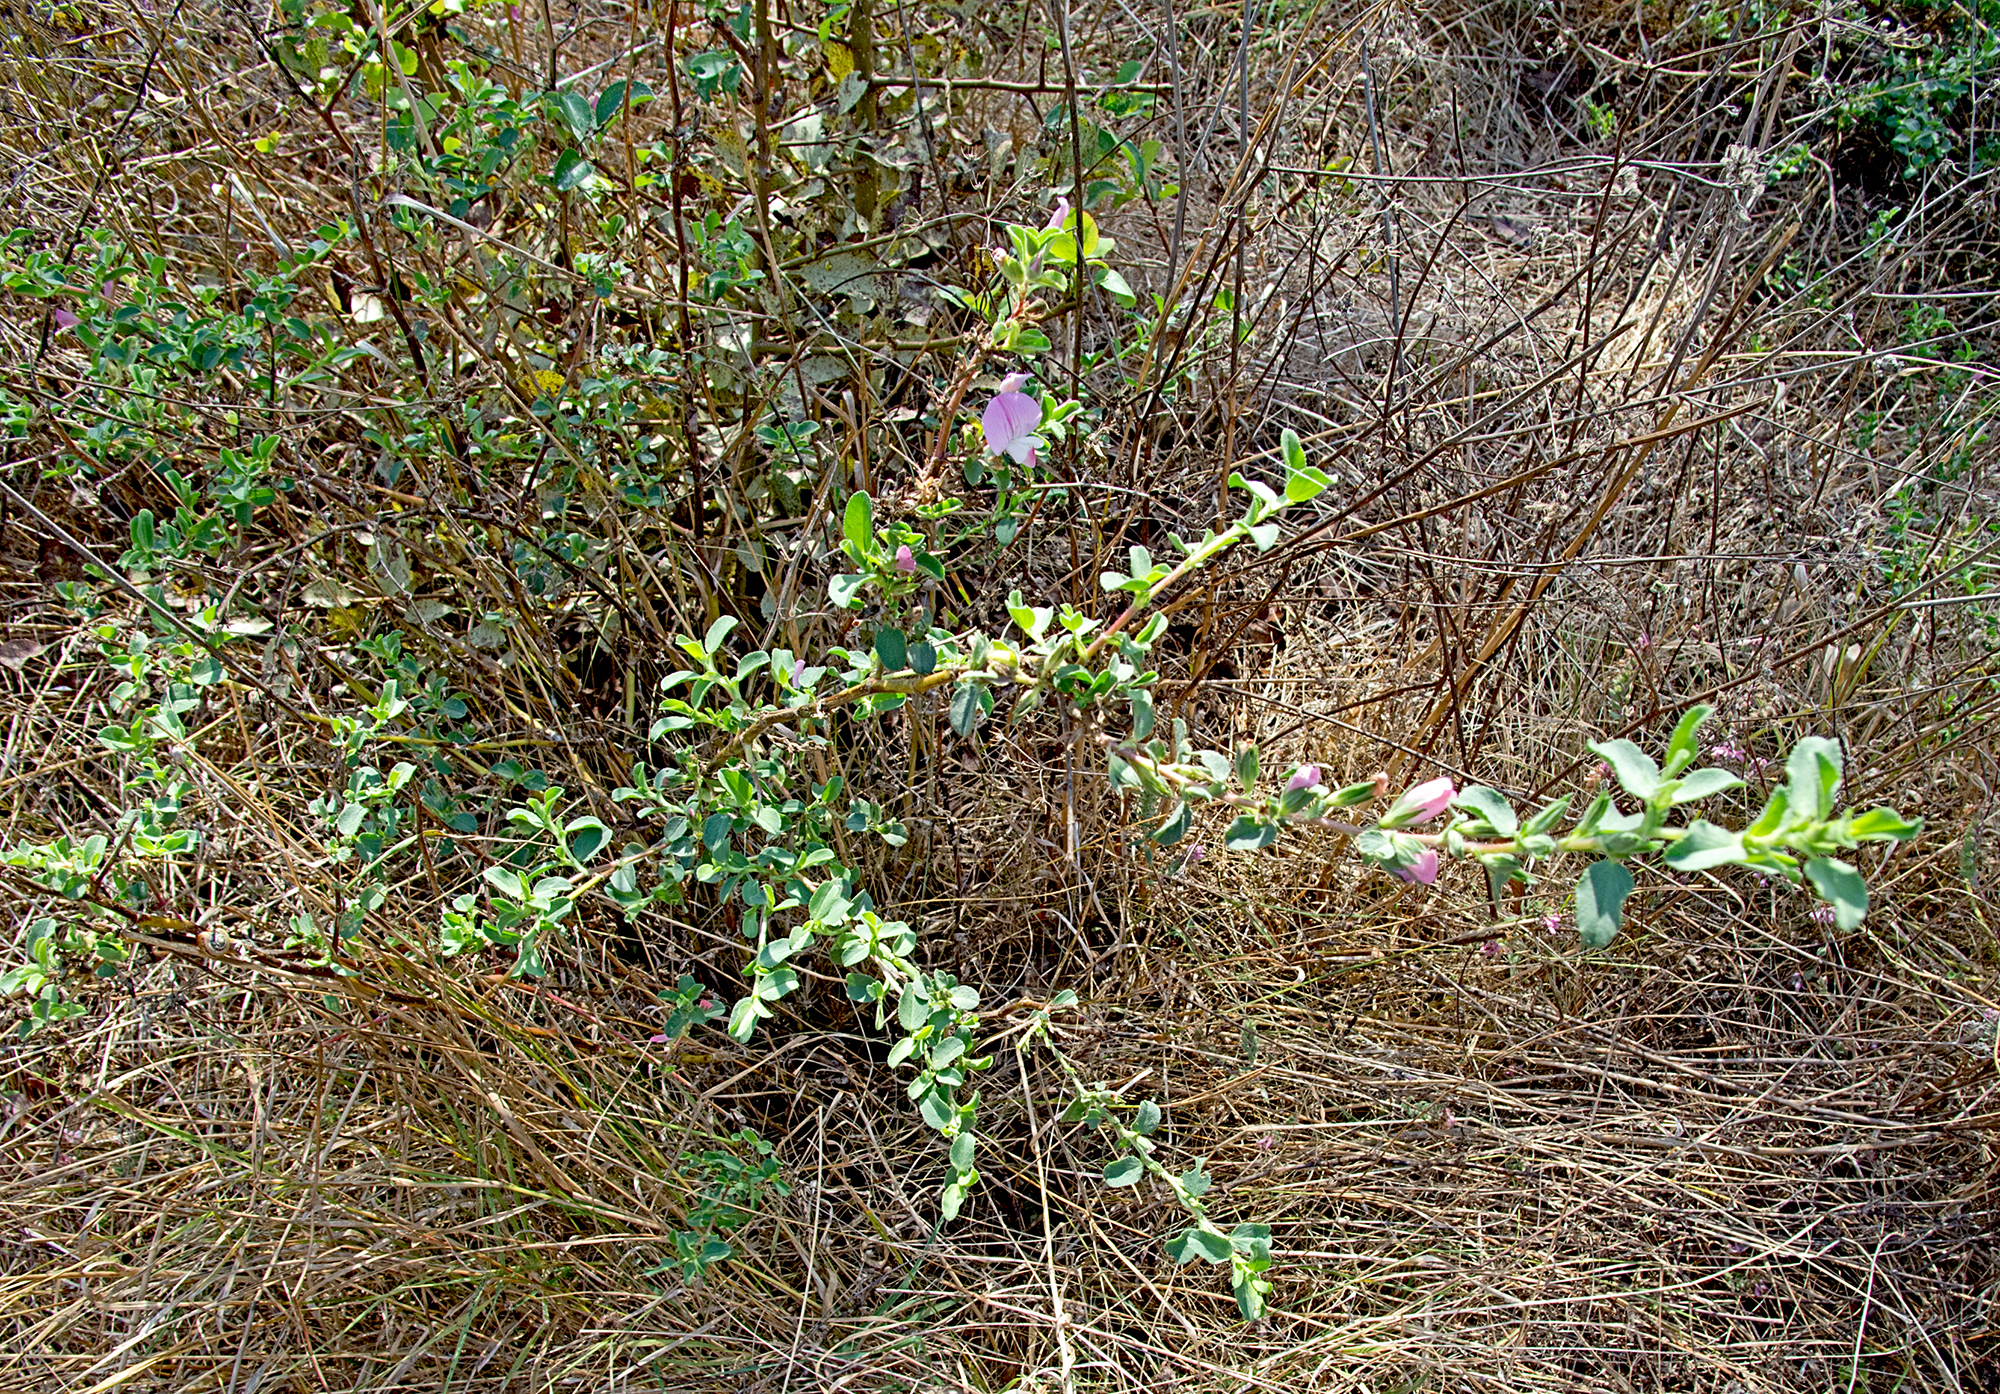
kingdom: Plantae
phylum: Tracheophyta
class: Magnoliopsida
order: Fabales
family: Fabaceae
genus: Ononis
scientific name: Ononis spinosa
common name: Spiny restharrow
